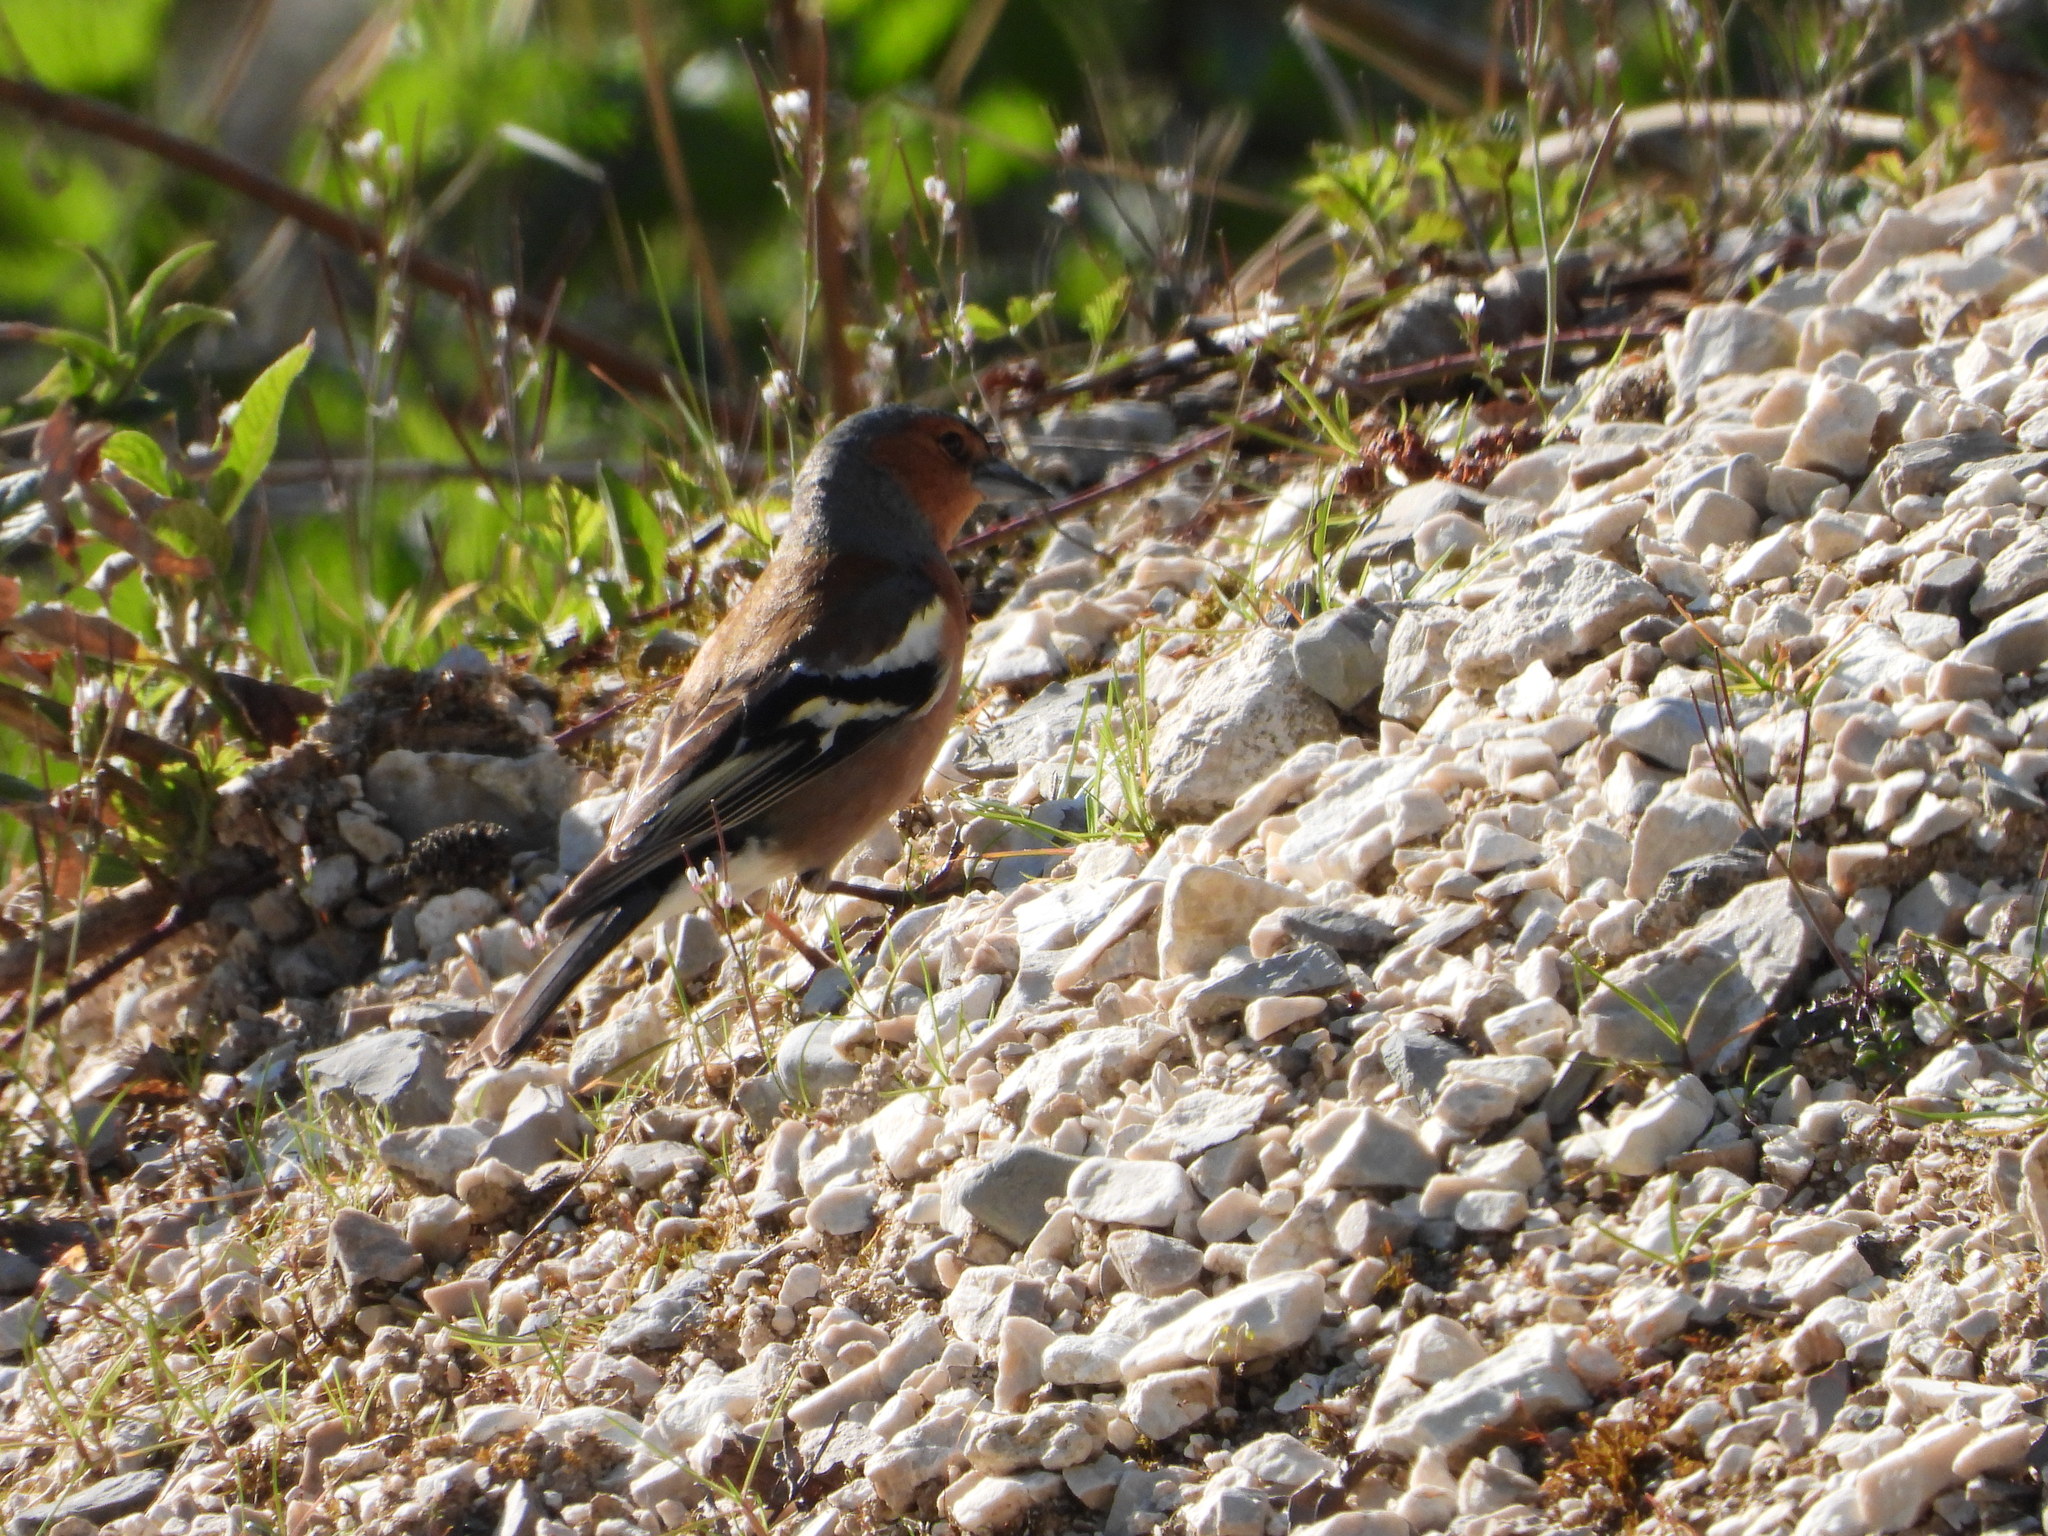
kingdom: Animalia
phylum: Chordata
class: Aves
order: Passeriformes
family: Fringillidae
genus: Fringilla
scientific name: Fringilla coelebs
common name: Common chaffinch
